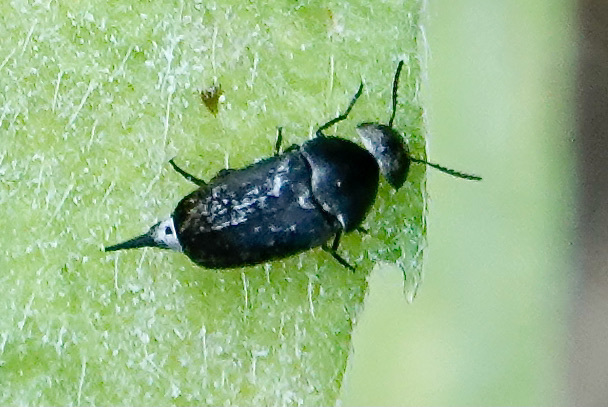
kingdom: Animalia
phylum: Arthropoda
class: Insecta
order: Coleoptera
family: Mordellidae
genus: Mordella
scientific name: Mordella marginata
